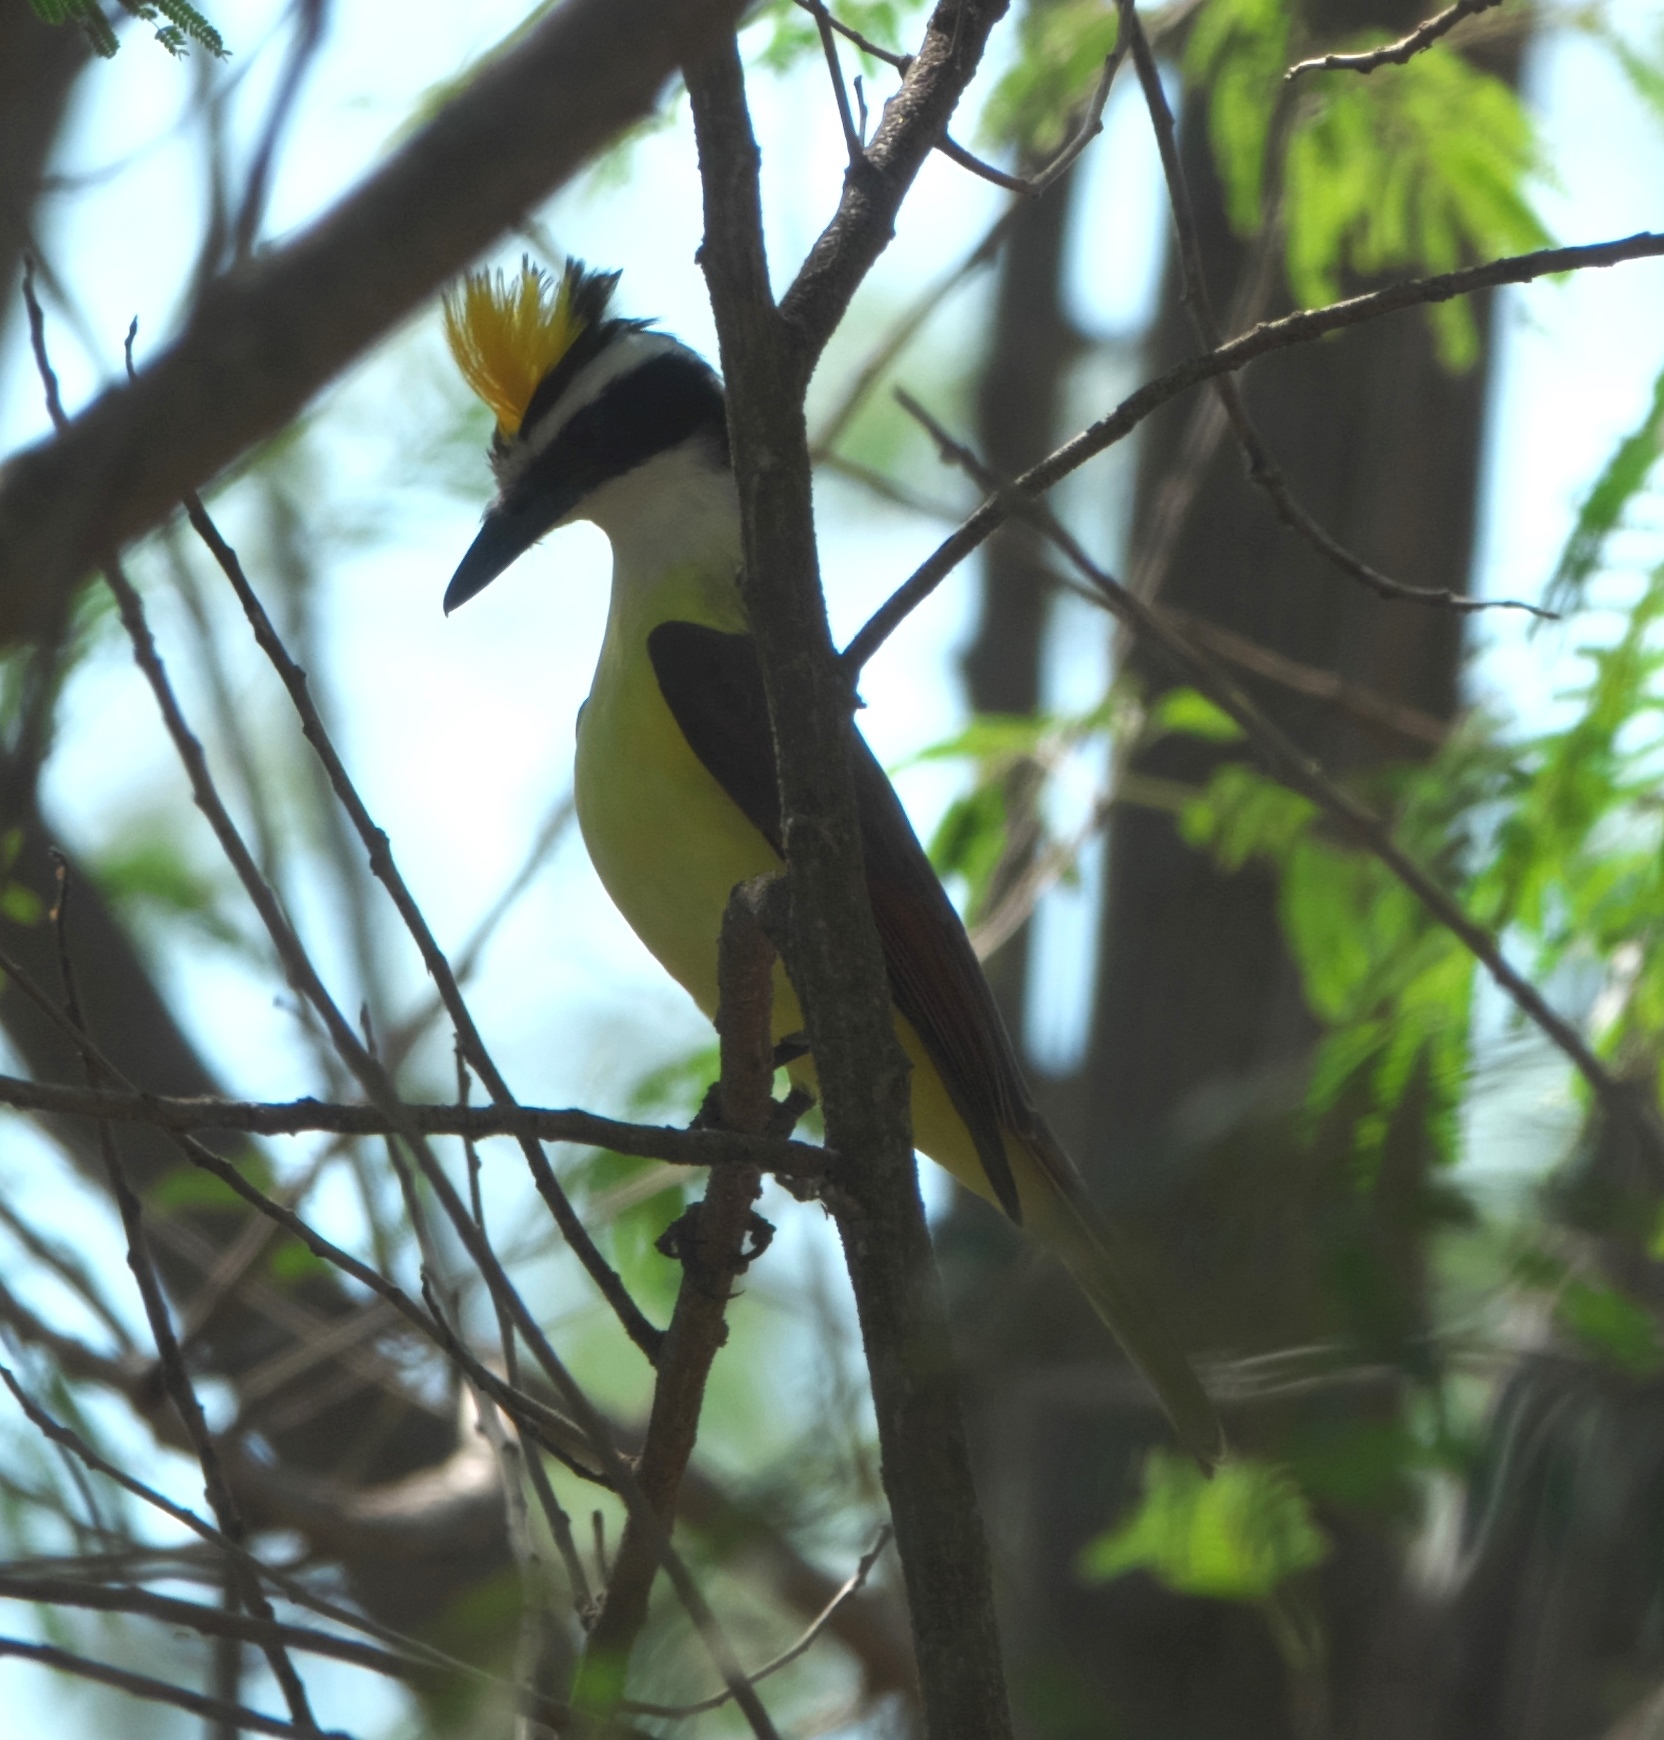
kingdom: Animalia
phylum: Chordata
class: Aves
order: Passeriformes
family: Tyrannidae
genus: Pitangus
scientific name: Pitangus sulphuratus
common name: Great kiskadee
